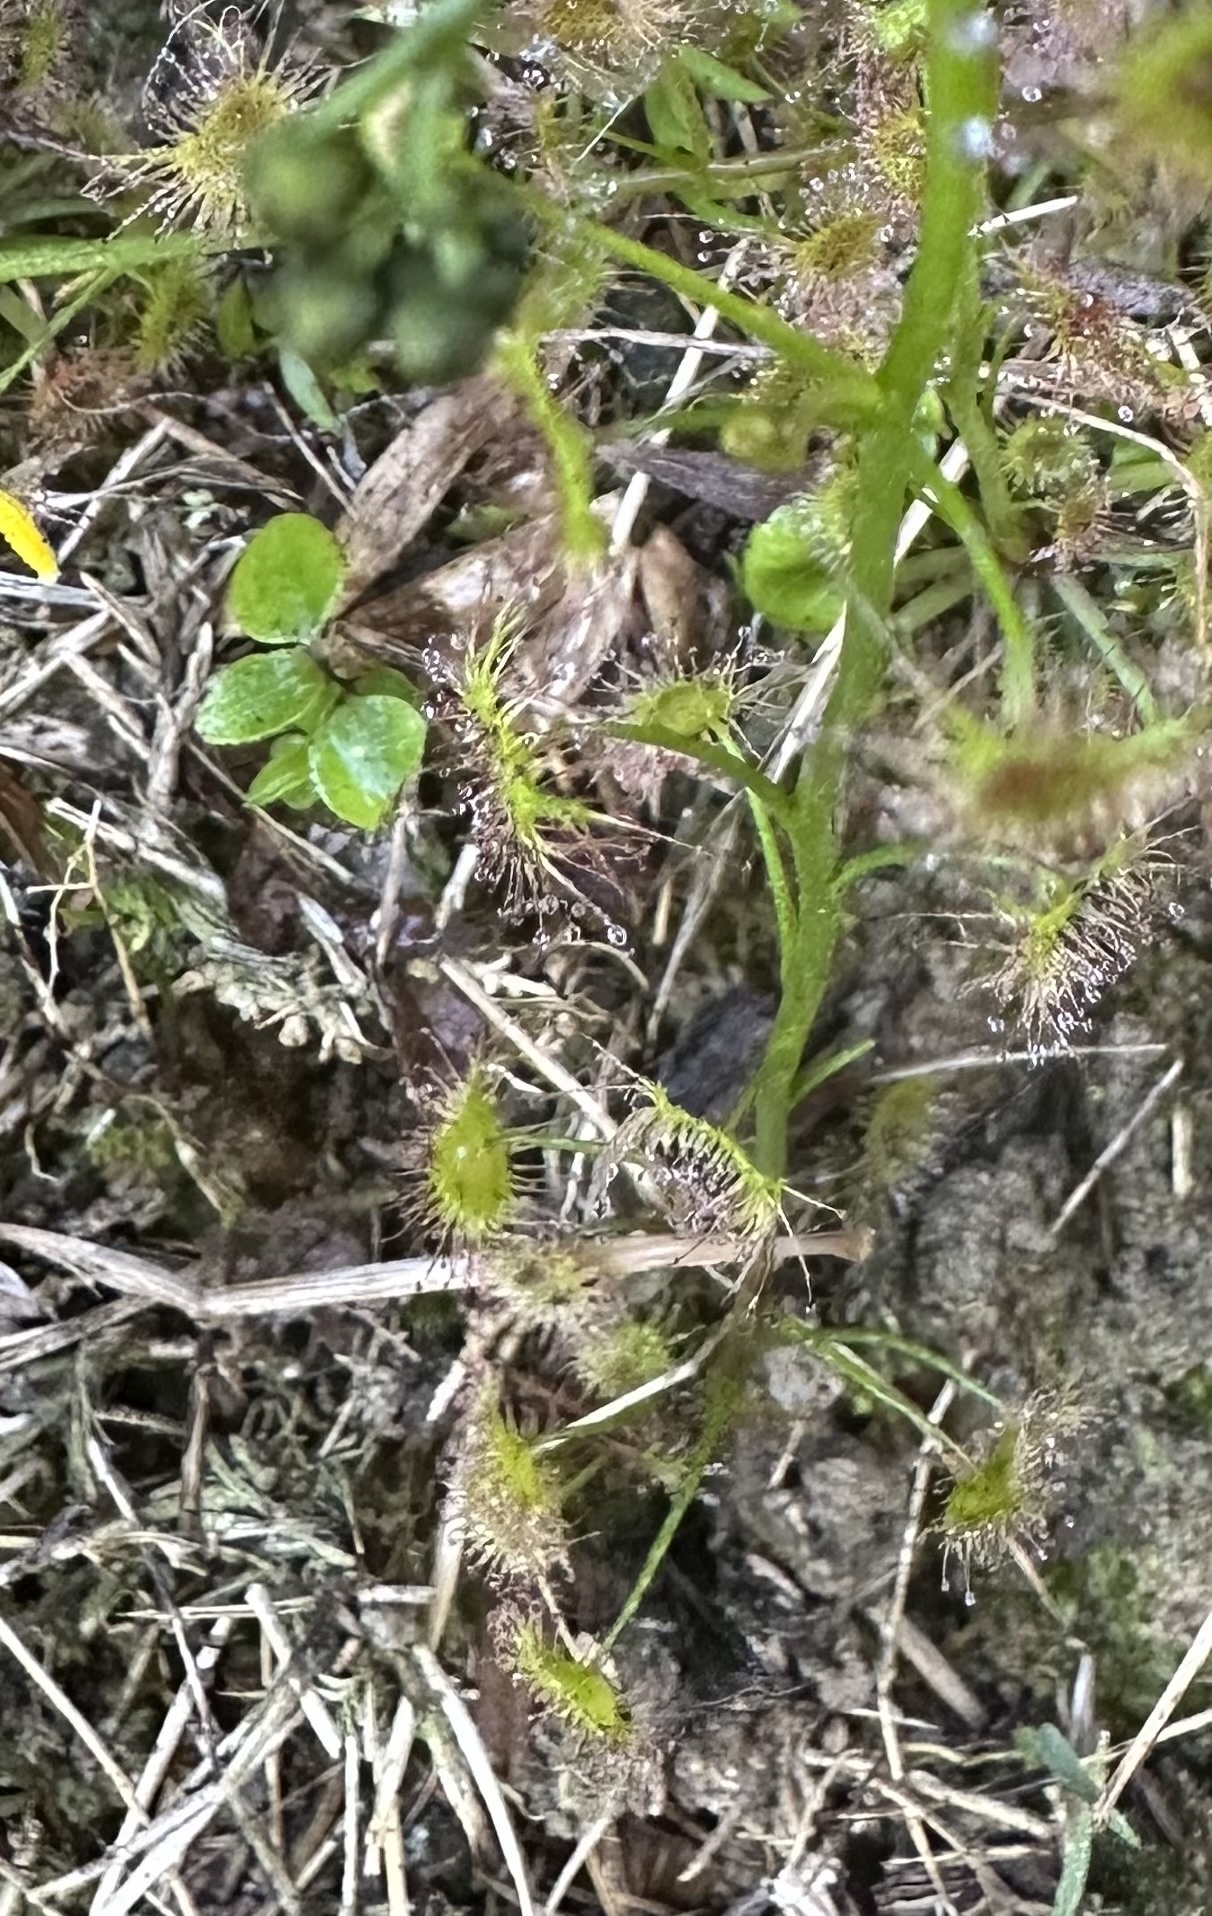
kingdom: Plantae
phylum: Tracheophyta
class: Magnoliopsida
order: Caryophyllales
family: Droseraceae
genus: Drosera
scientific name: Drosera peltata
